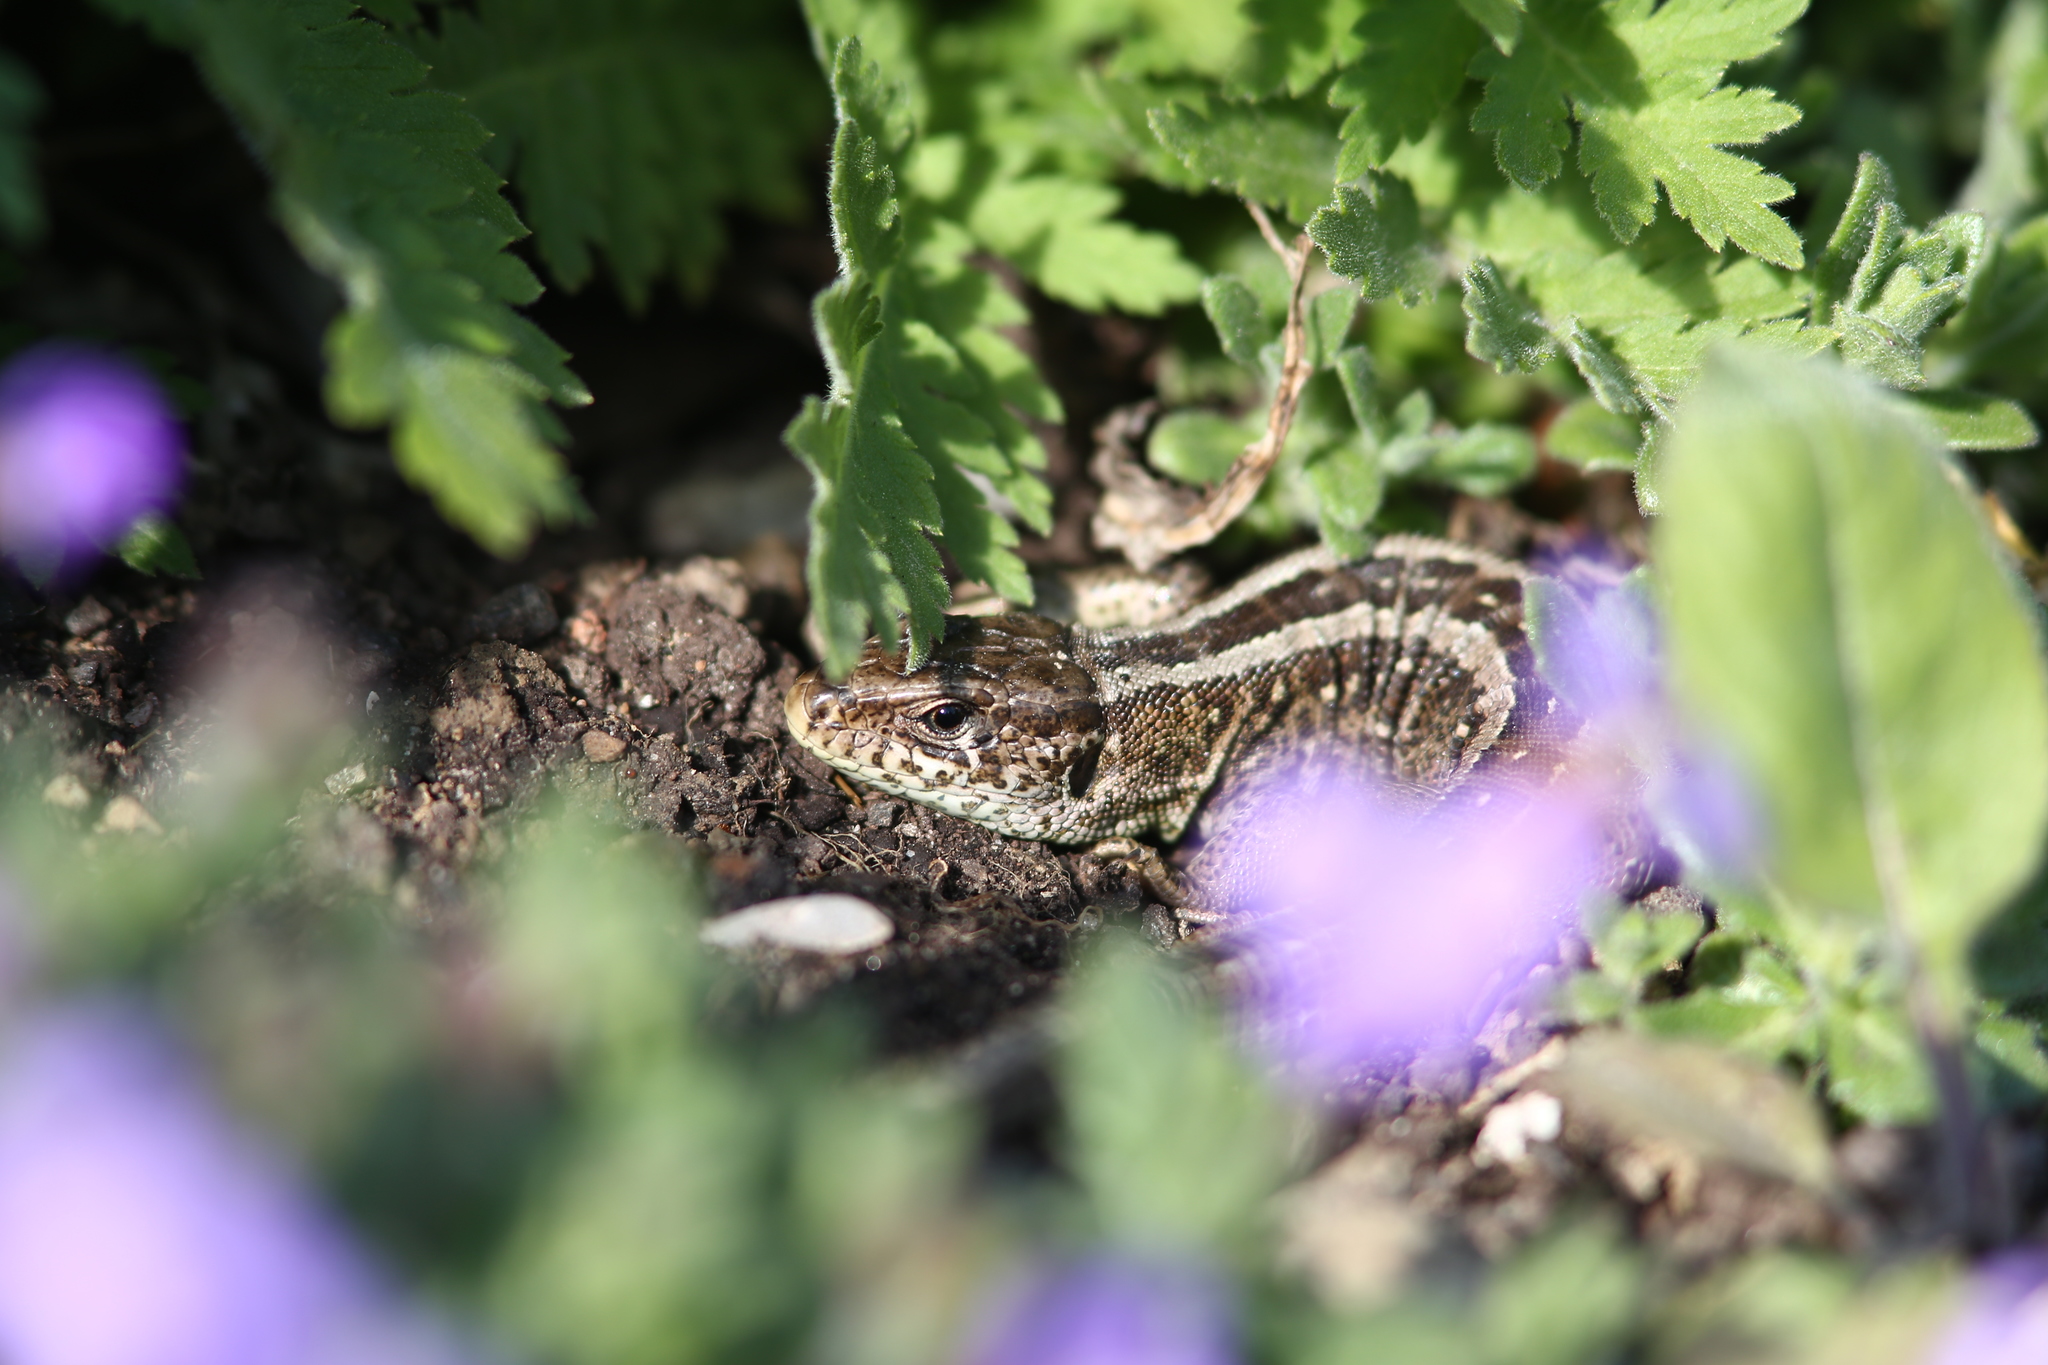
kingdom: Animalia
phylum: Chordata
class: Squamata
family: Lacertidae
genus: Lacerta
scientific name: Lacerta agilis
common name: Sand lizard
